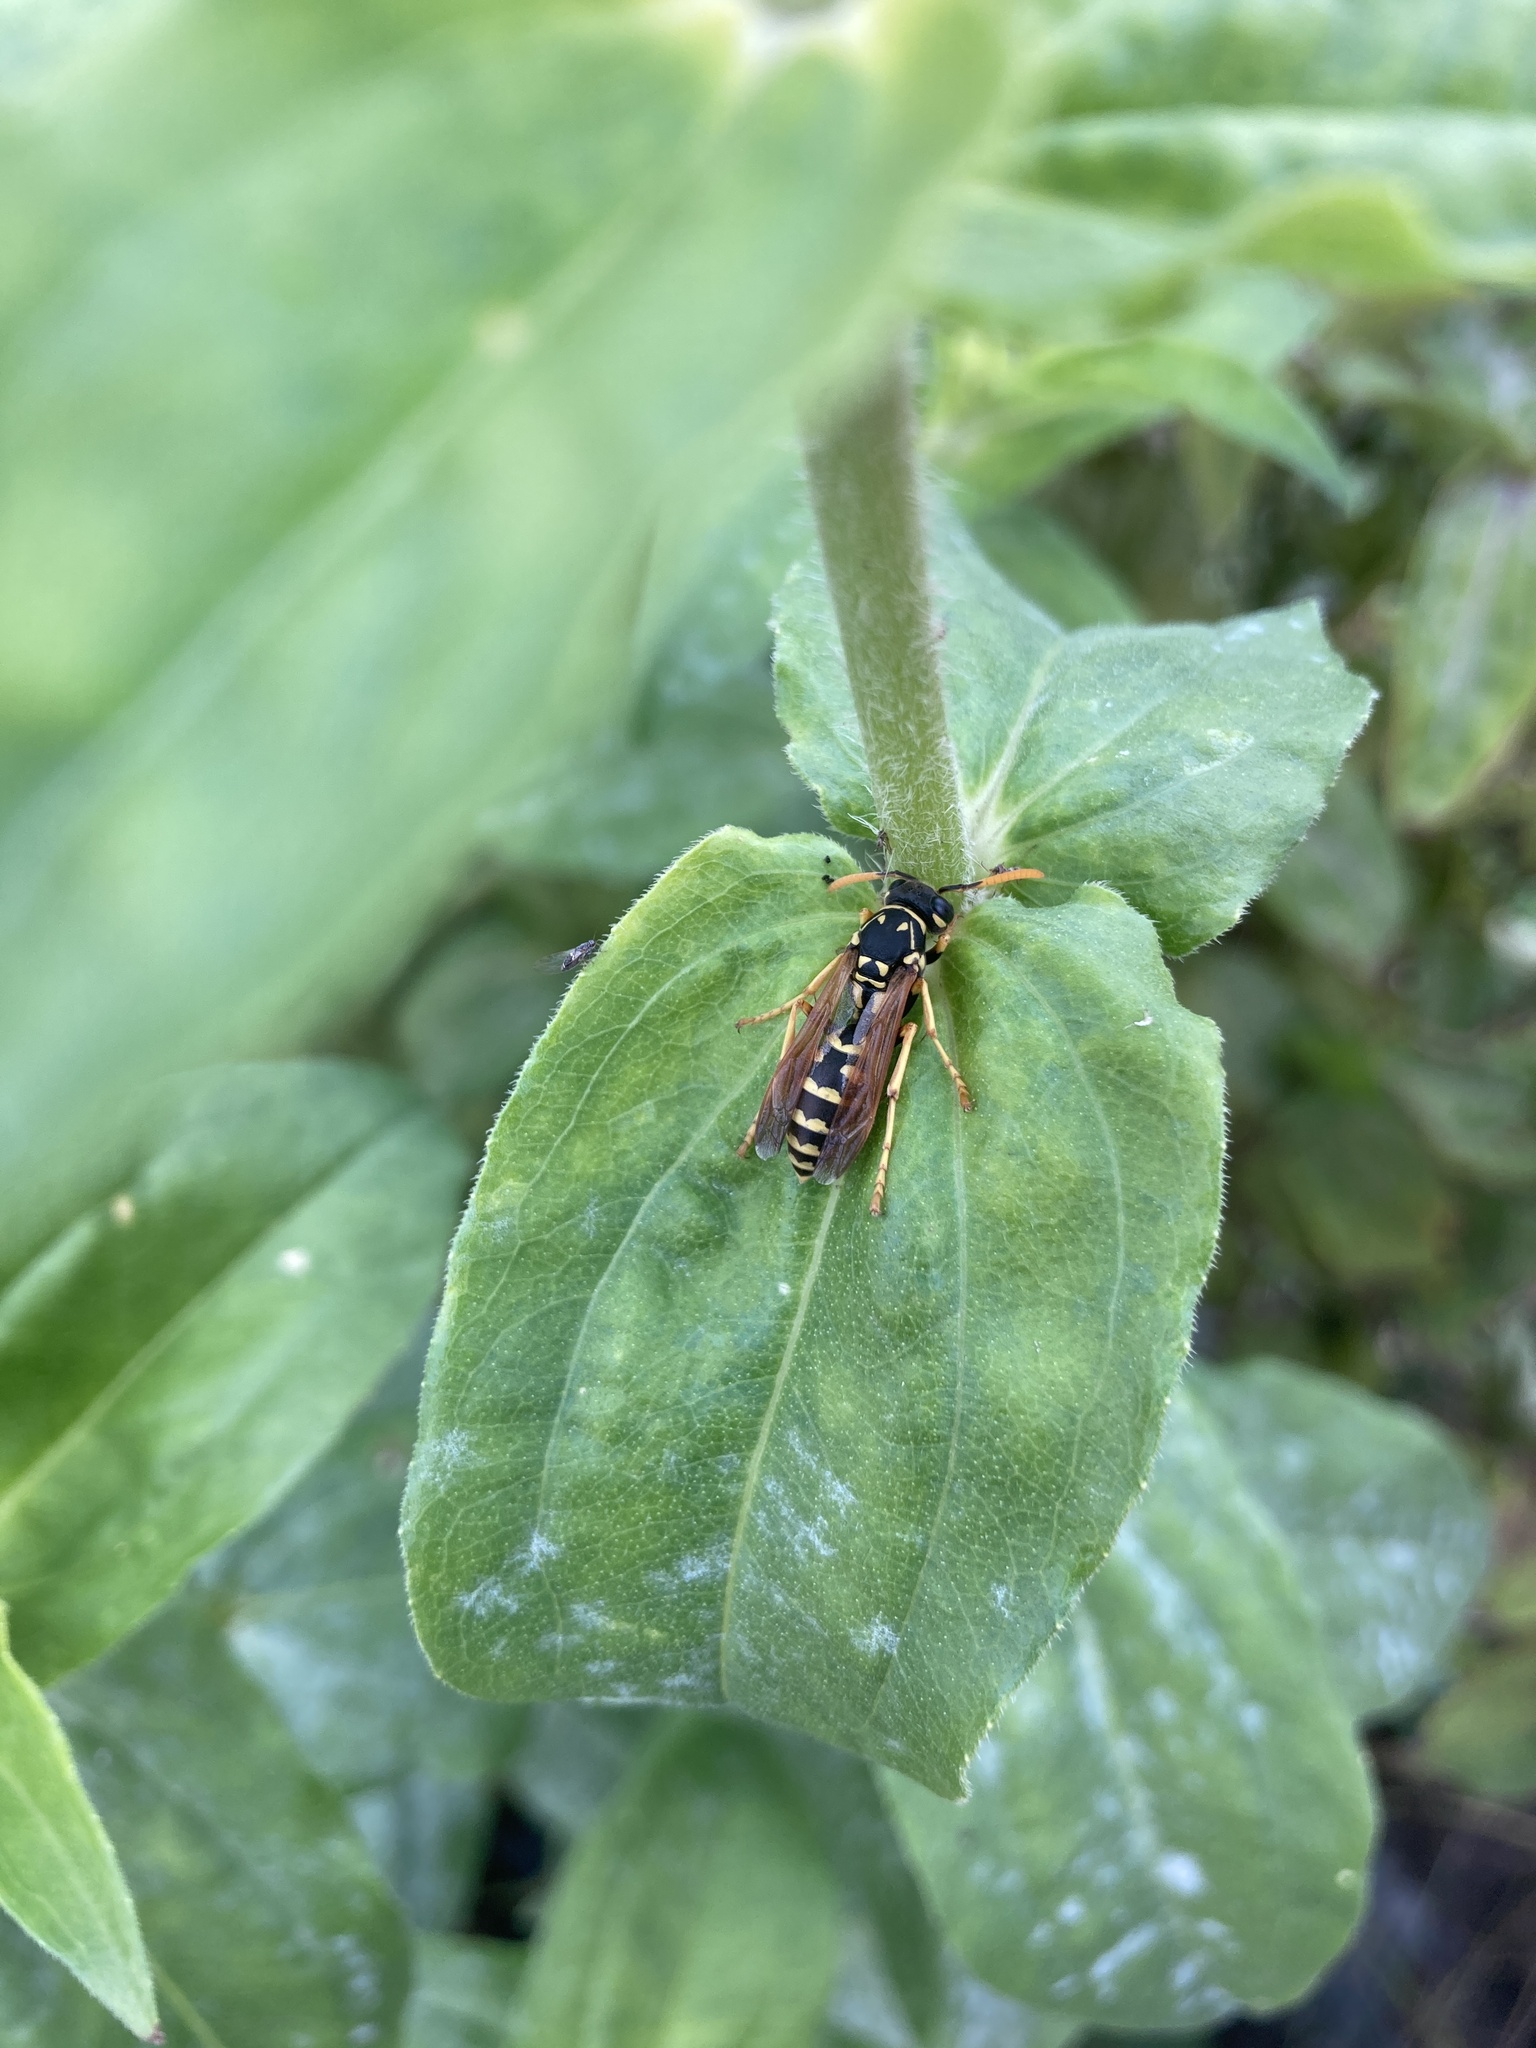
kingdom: Animalia
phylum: Arthropoda
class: Insecta
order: Hymenoptera
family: Eumenidae
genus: Polistes
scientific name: Polistes dominula
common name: Paper wasp
